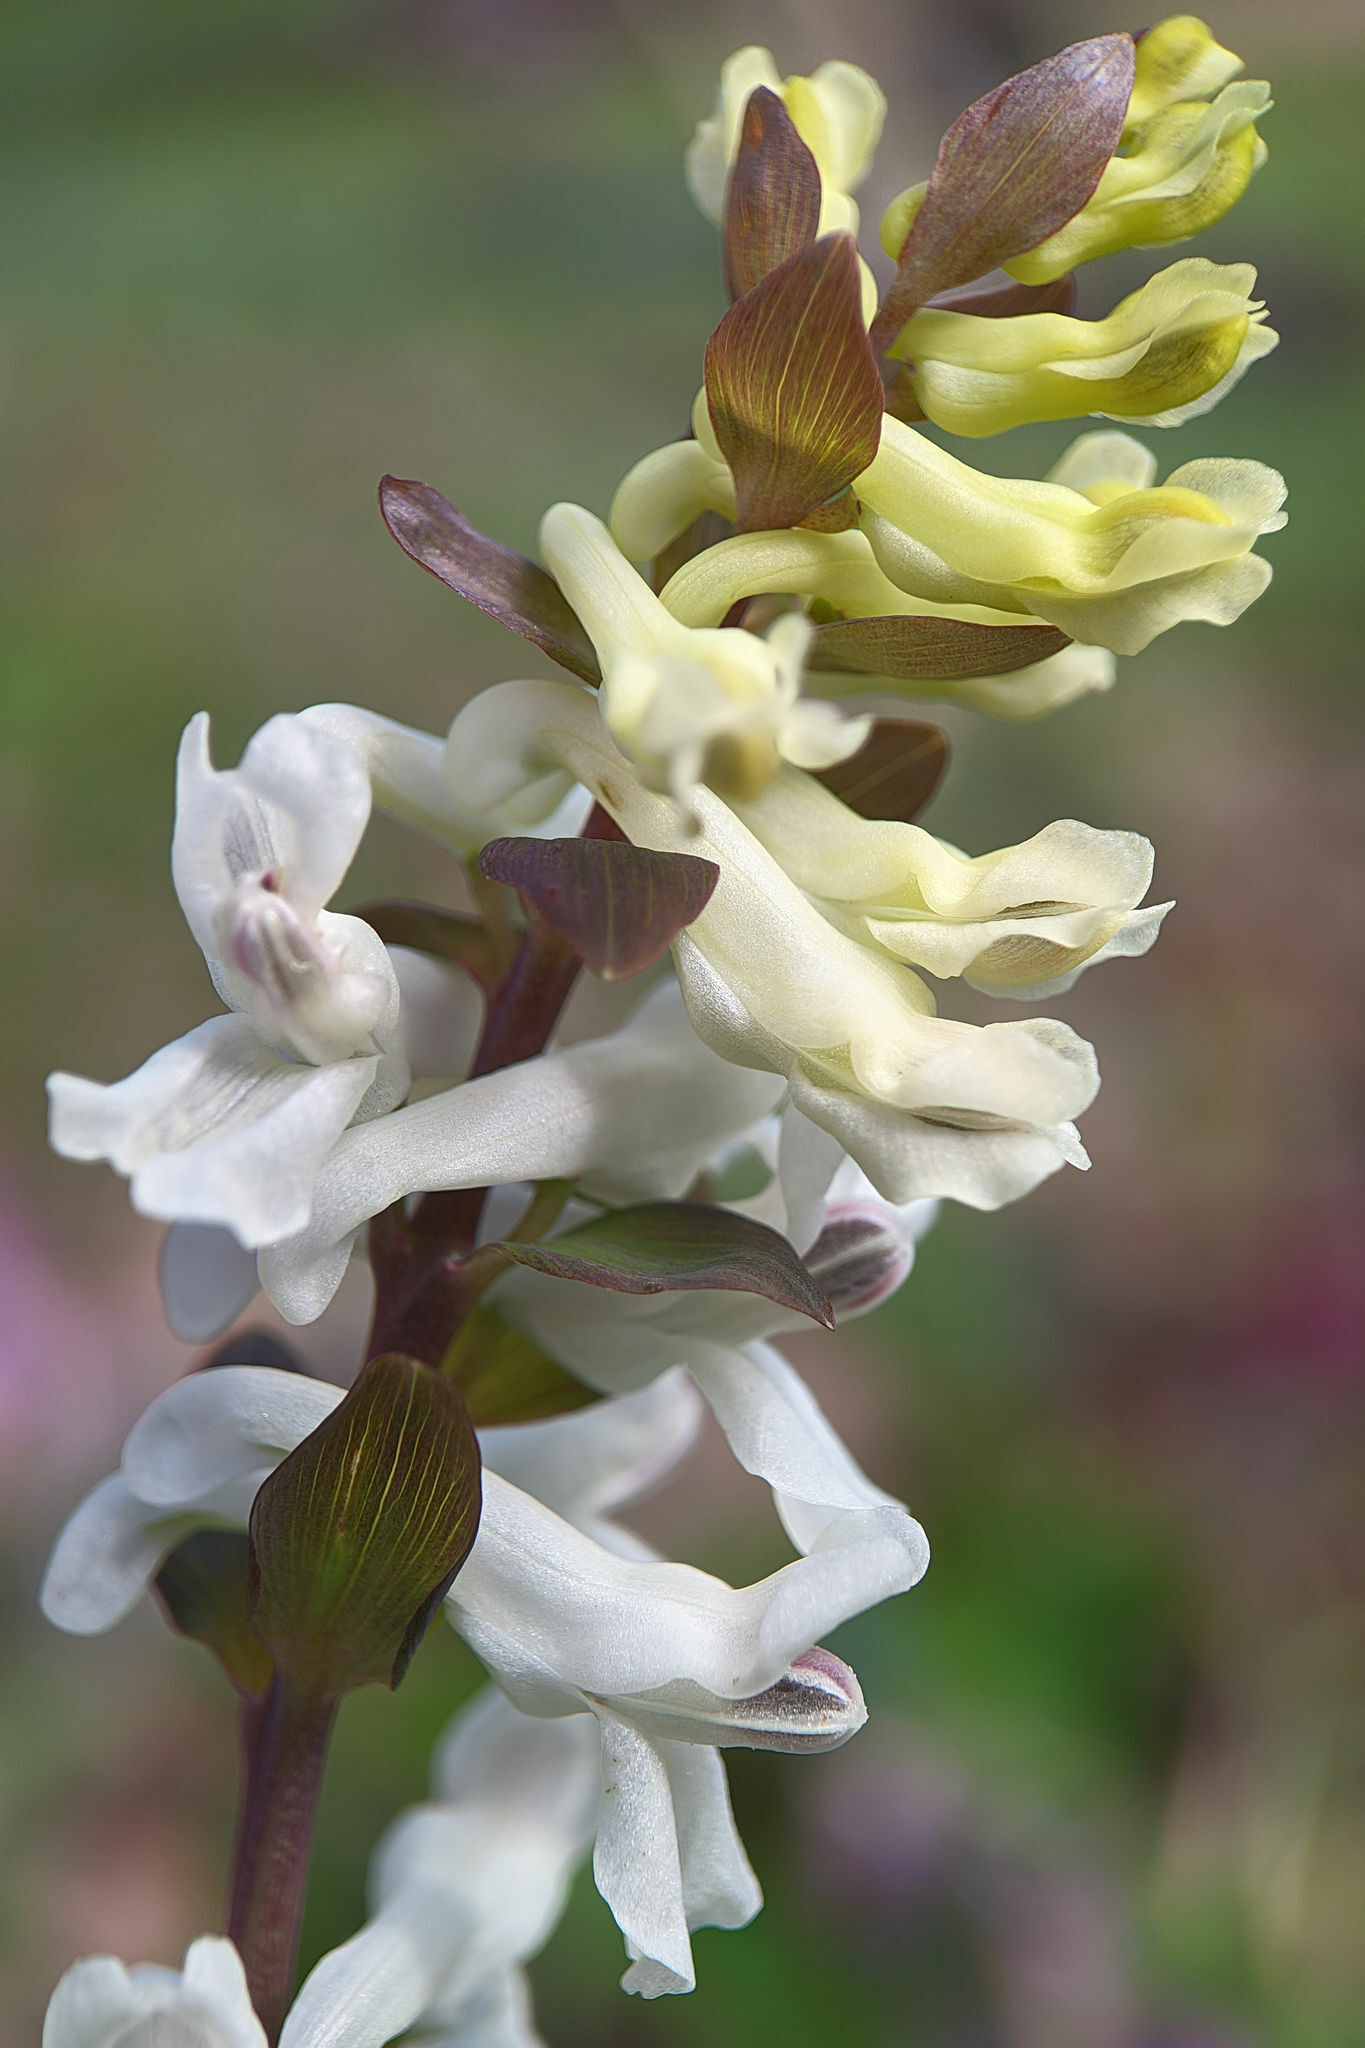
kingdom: Plantae
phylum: Tracheophyta
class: Magnoliopsida
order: Ranunculales
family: Papaveraceae
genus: Corydalis
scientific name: Corydalis cava
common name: Hollowroot
